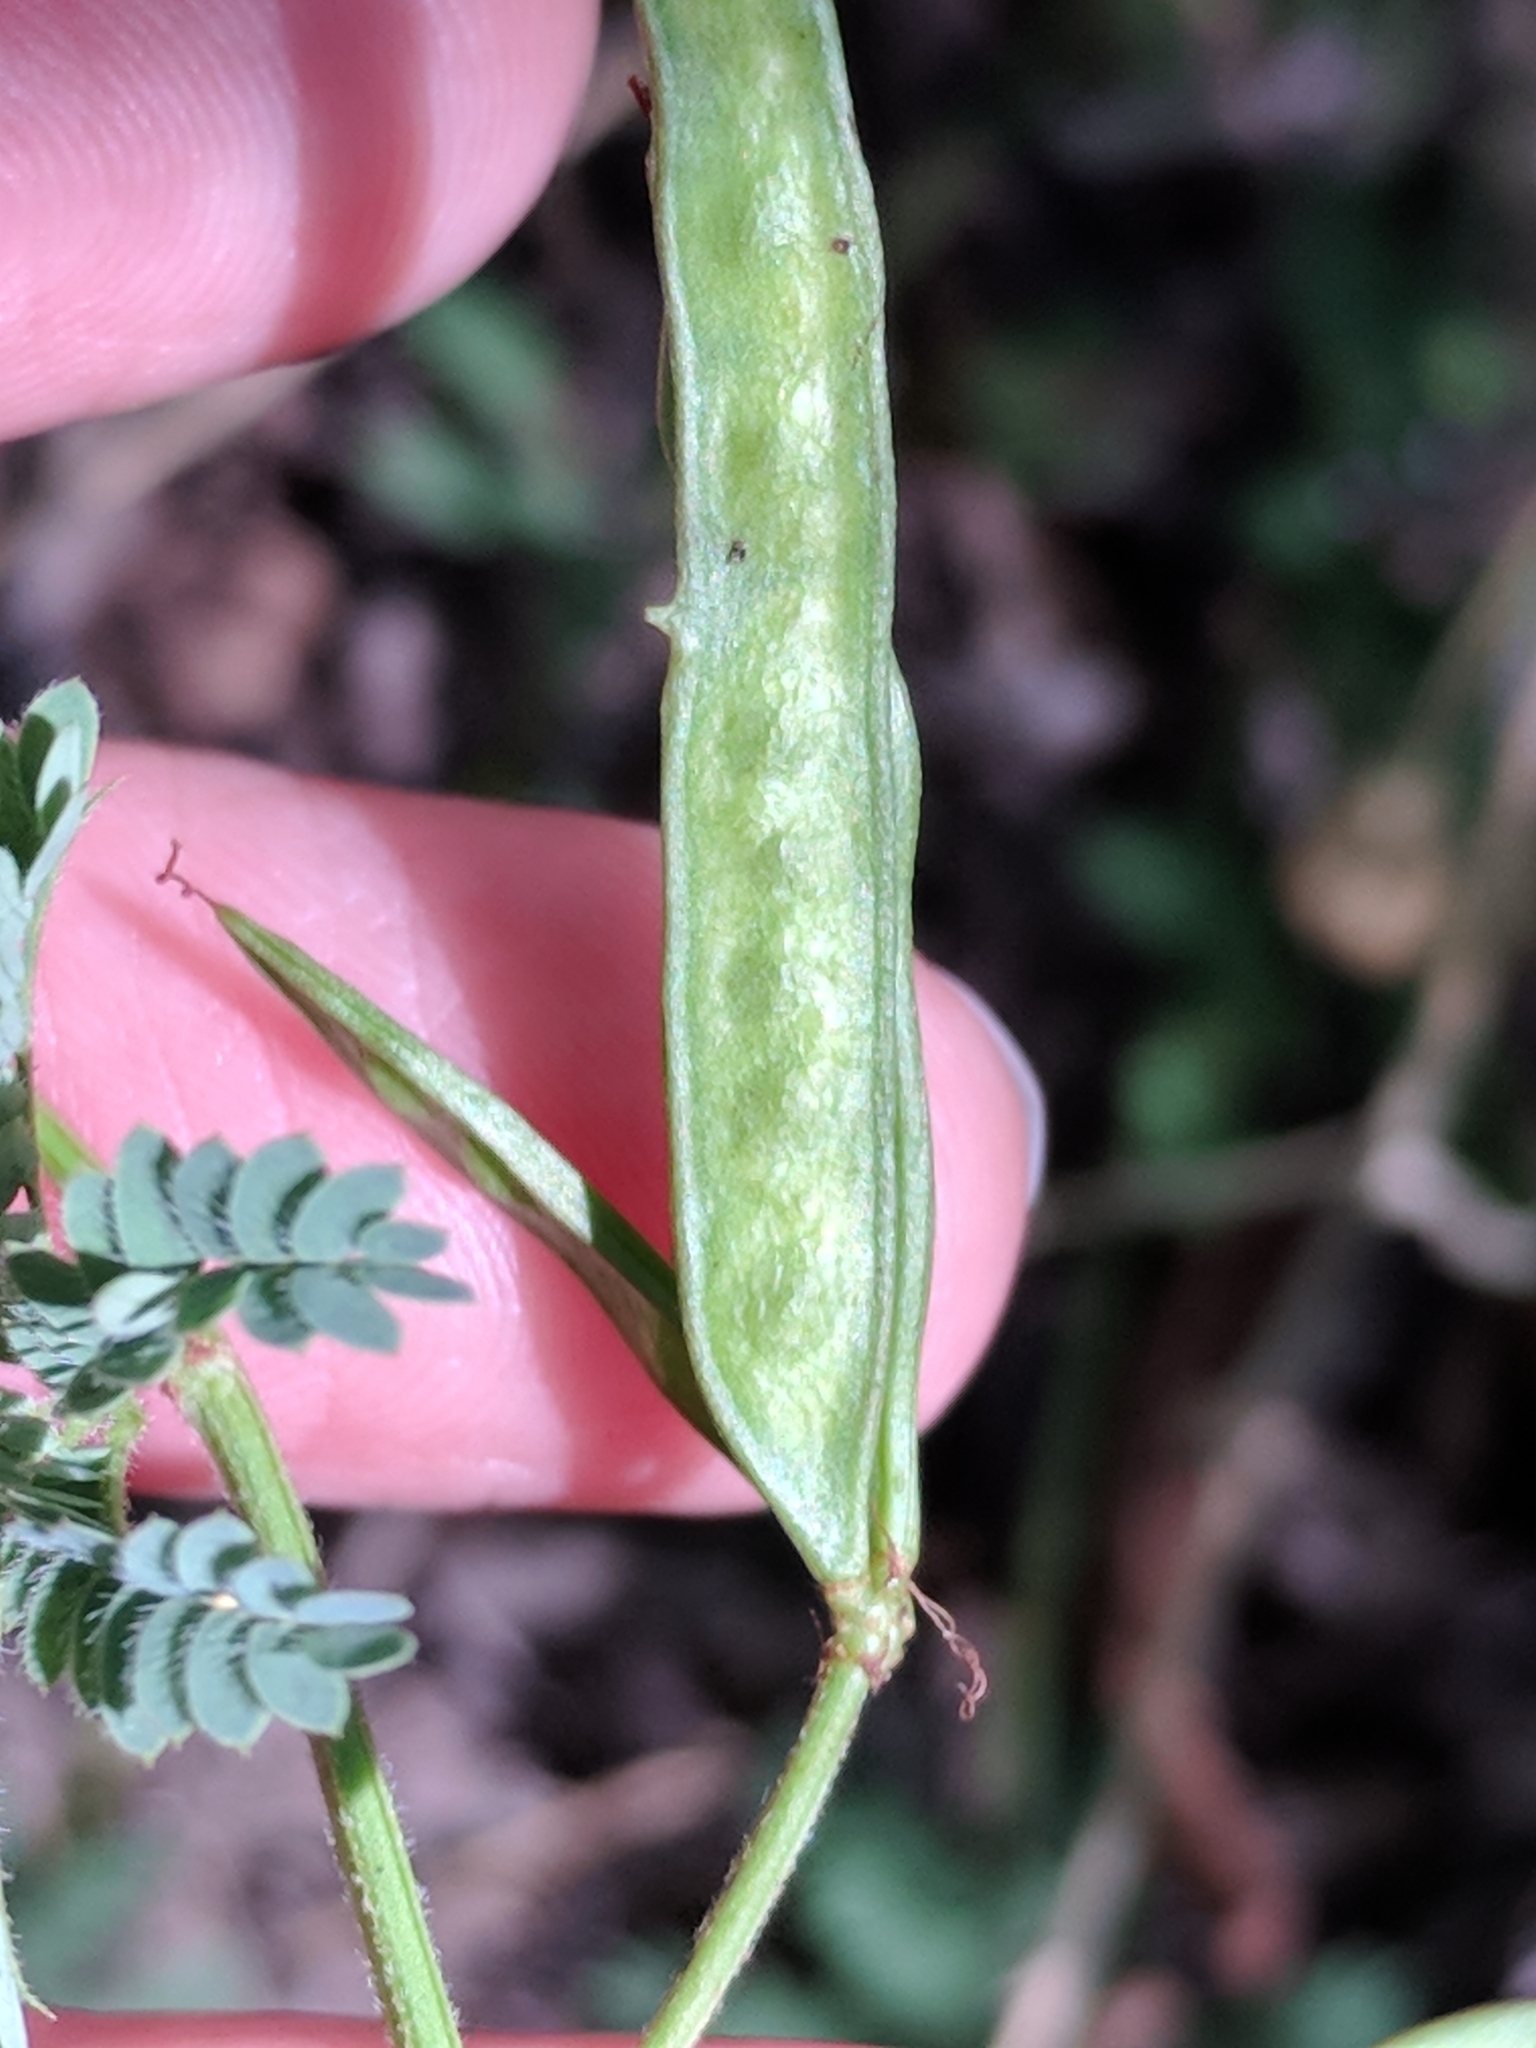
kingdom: Plantae
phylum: Tracheophyta
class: Magnoliopsida
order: Fabales
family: Fabaceae
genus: Desmanthus
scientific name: Desmanthus acuminatus
